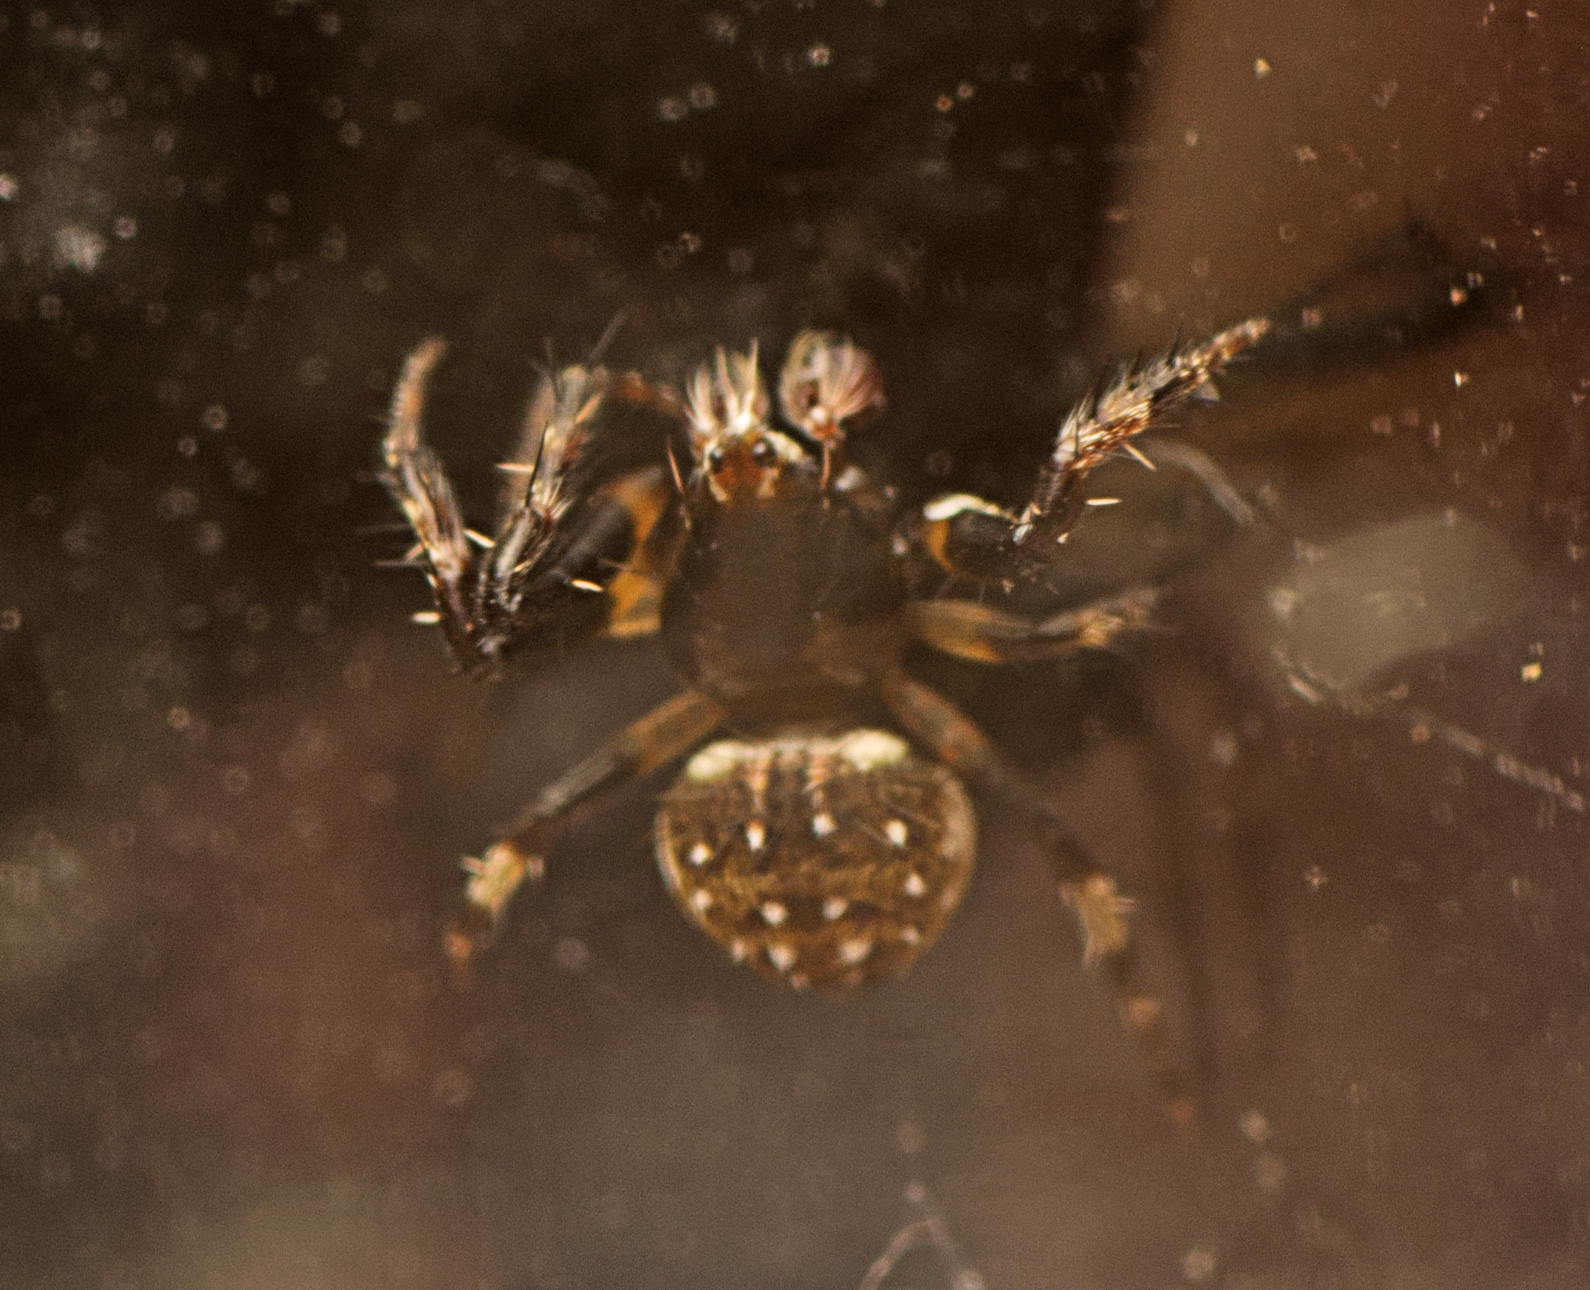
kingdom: Animalia
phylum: Arthropoda
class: Arachnida
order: Araneae
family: Araneidae
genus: Araneus
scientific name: Araneus rotundulus
